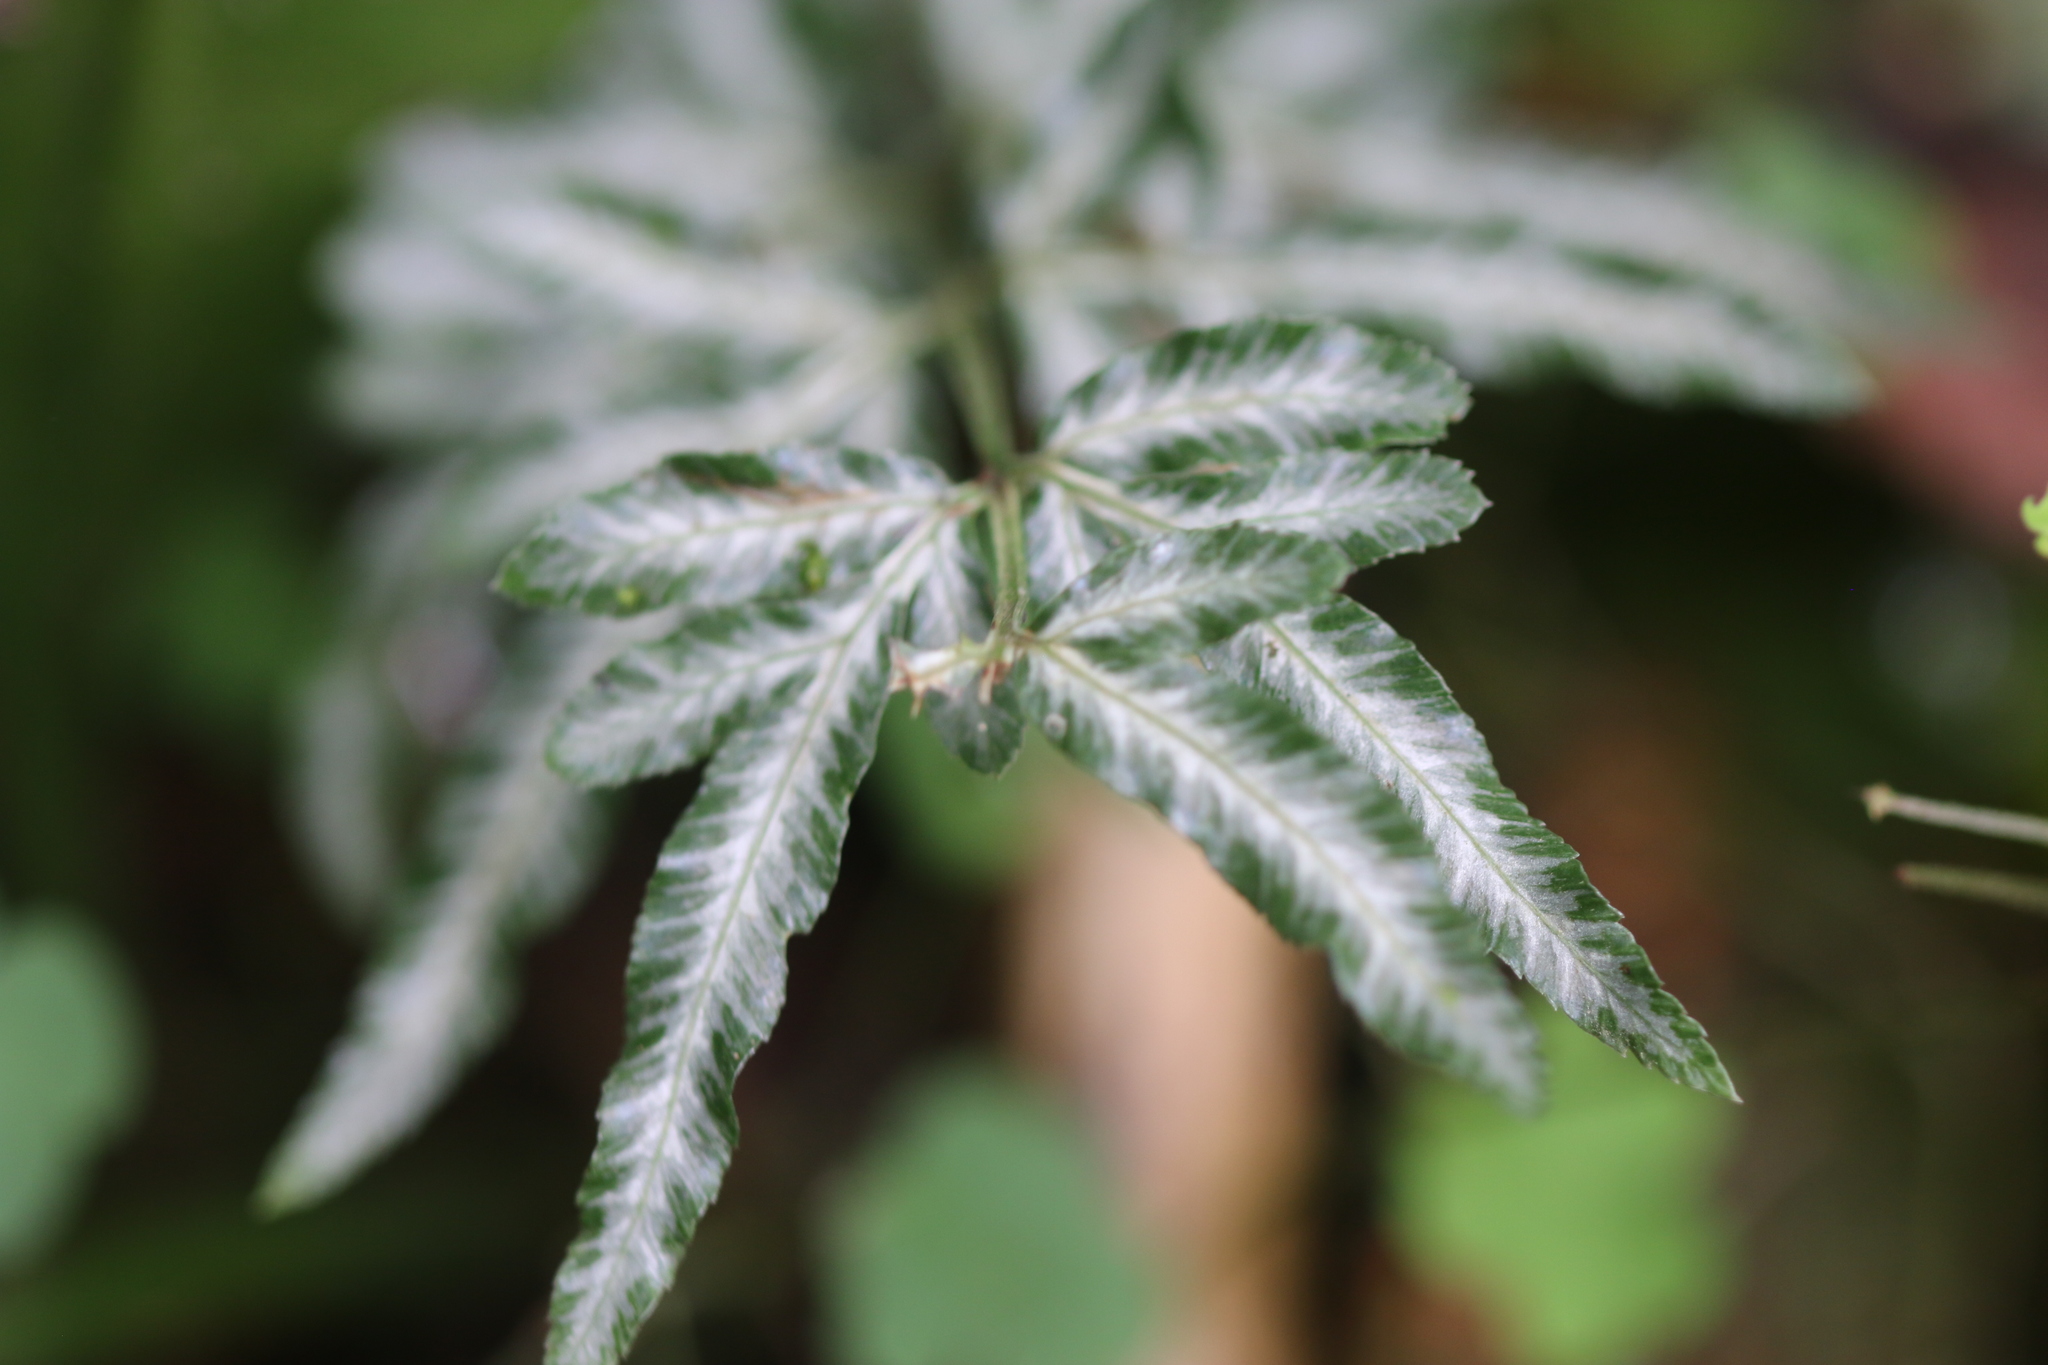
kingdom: Plantae
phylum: Tracheophyta
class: Polypodiopsida
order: Polypodiales
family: Pteridaceae
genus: Pteris
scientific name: Pteris ensiformis
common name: Sword brake
